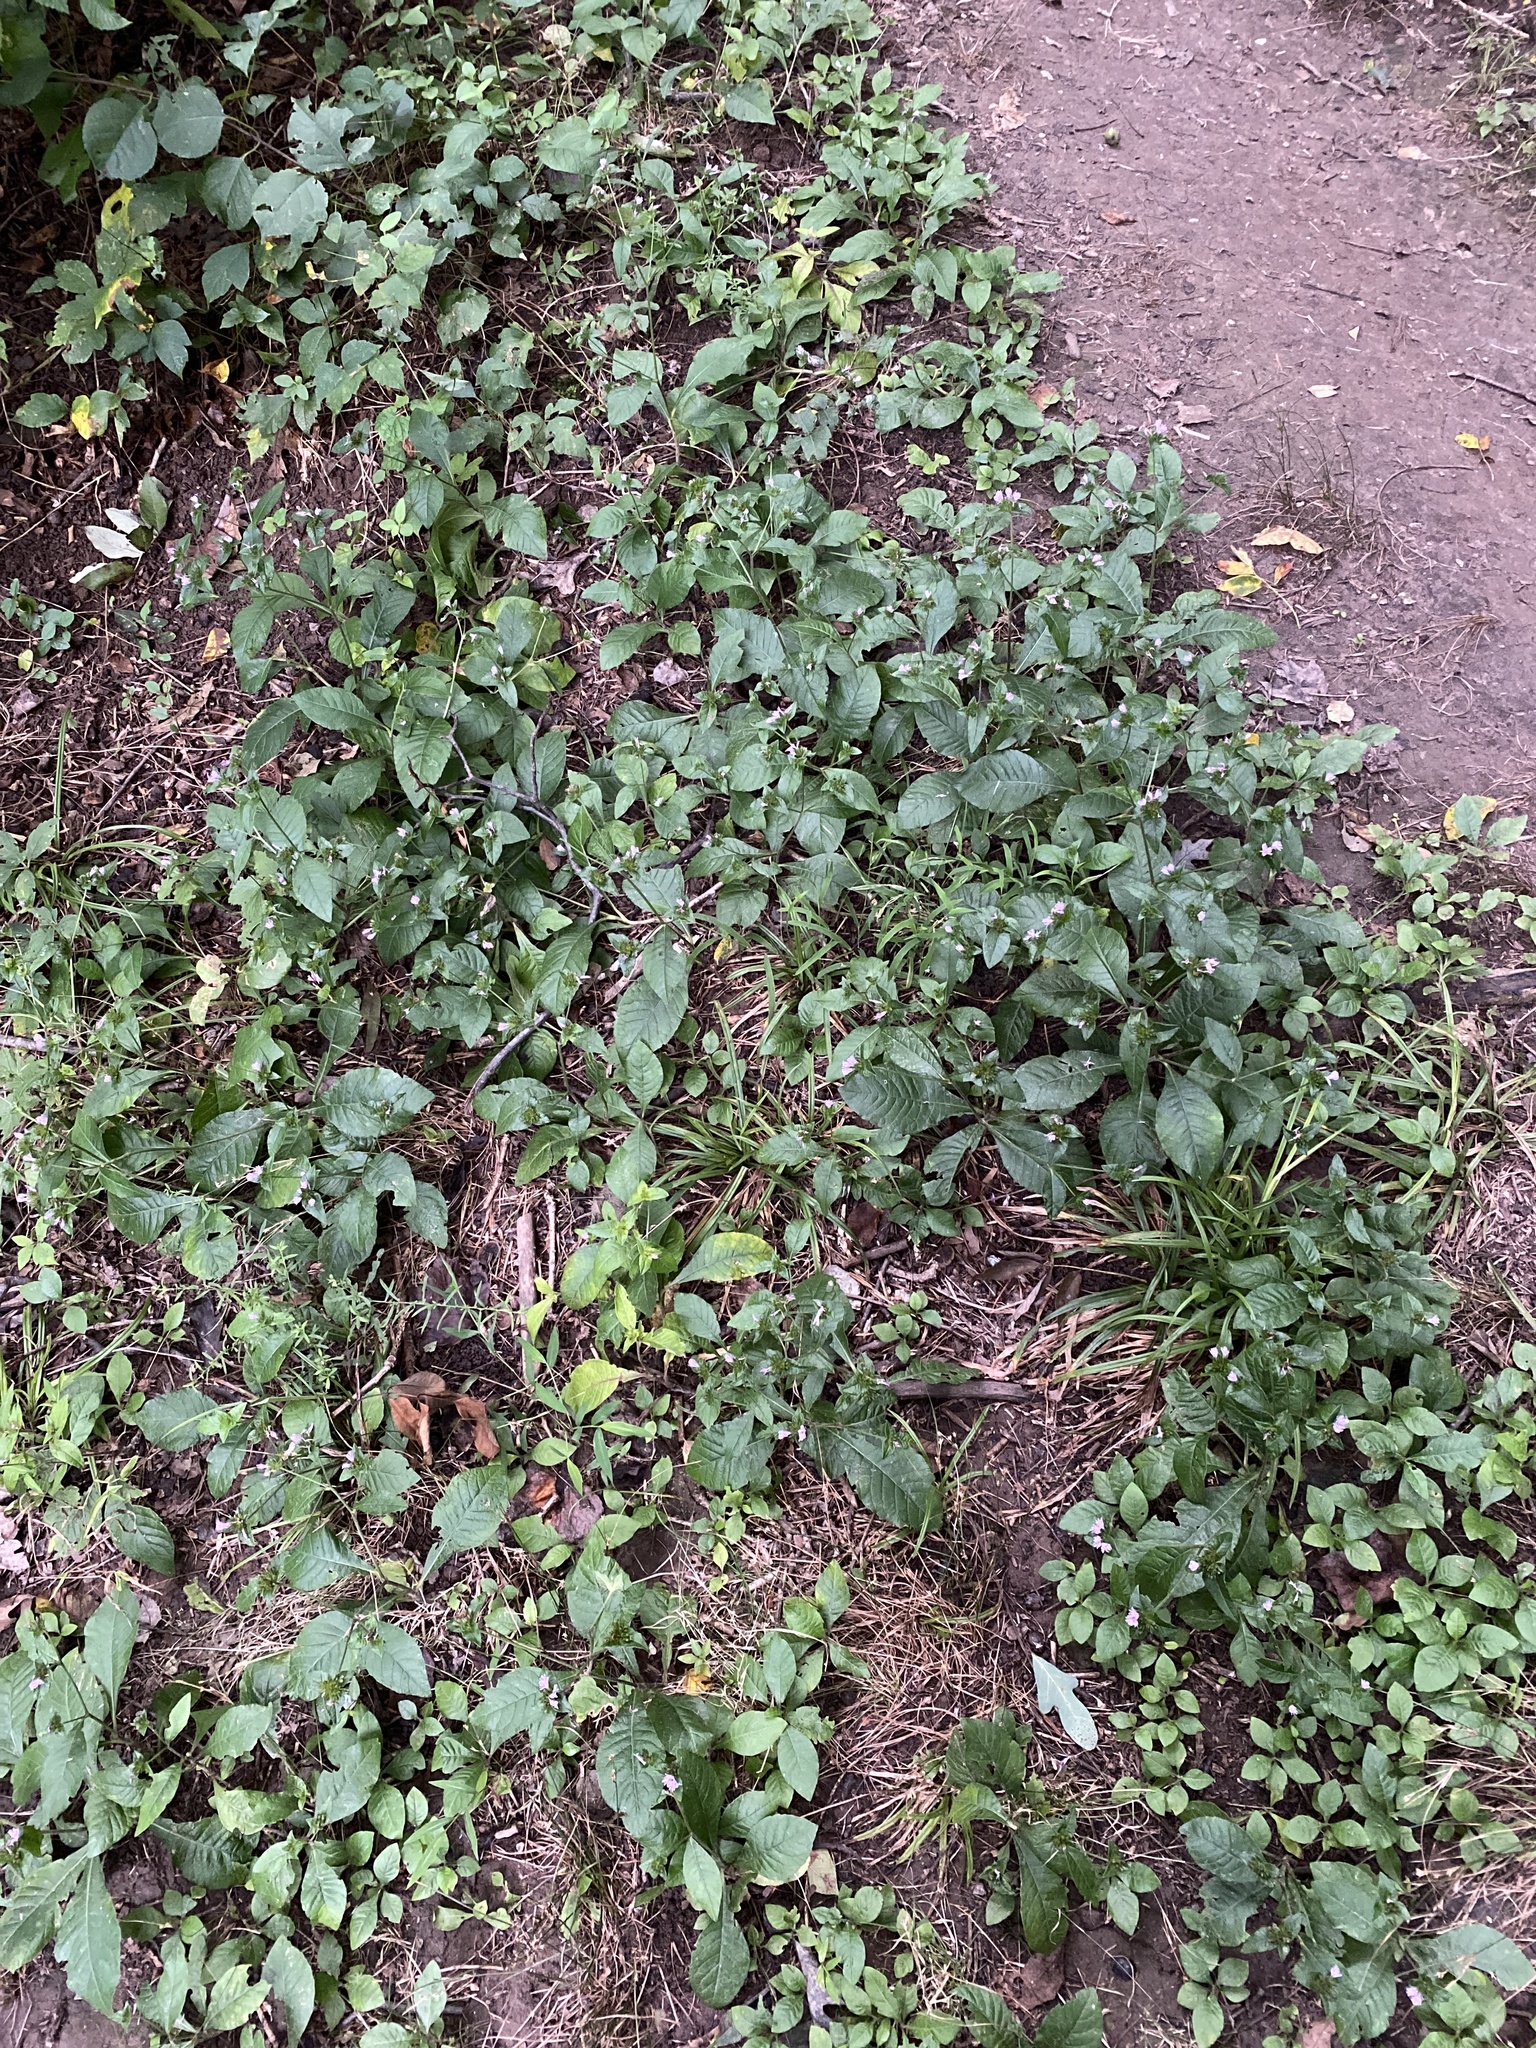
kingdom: Plantae
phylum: Tracheophyta
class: Magnoliopsida
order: Asterales
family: Asteraceae
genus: Elephantopus
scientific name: Elephantopus carolinianus
